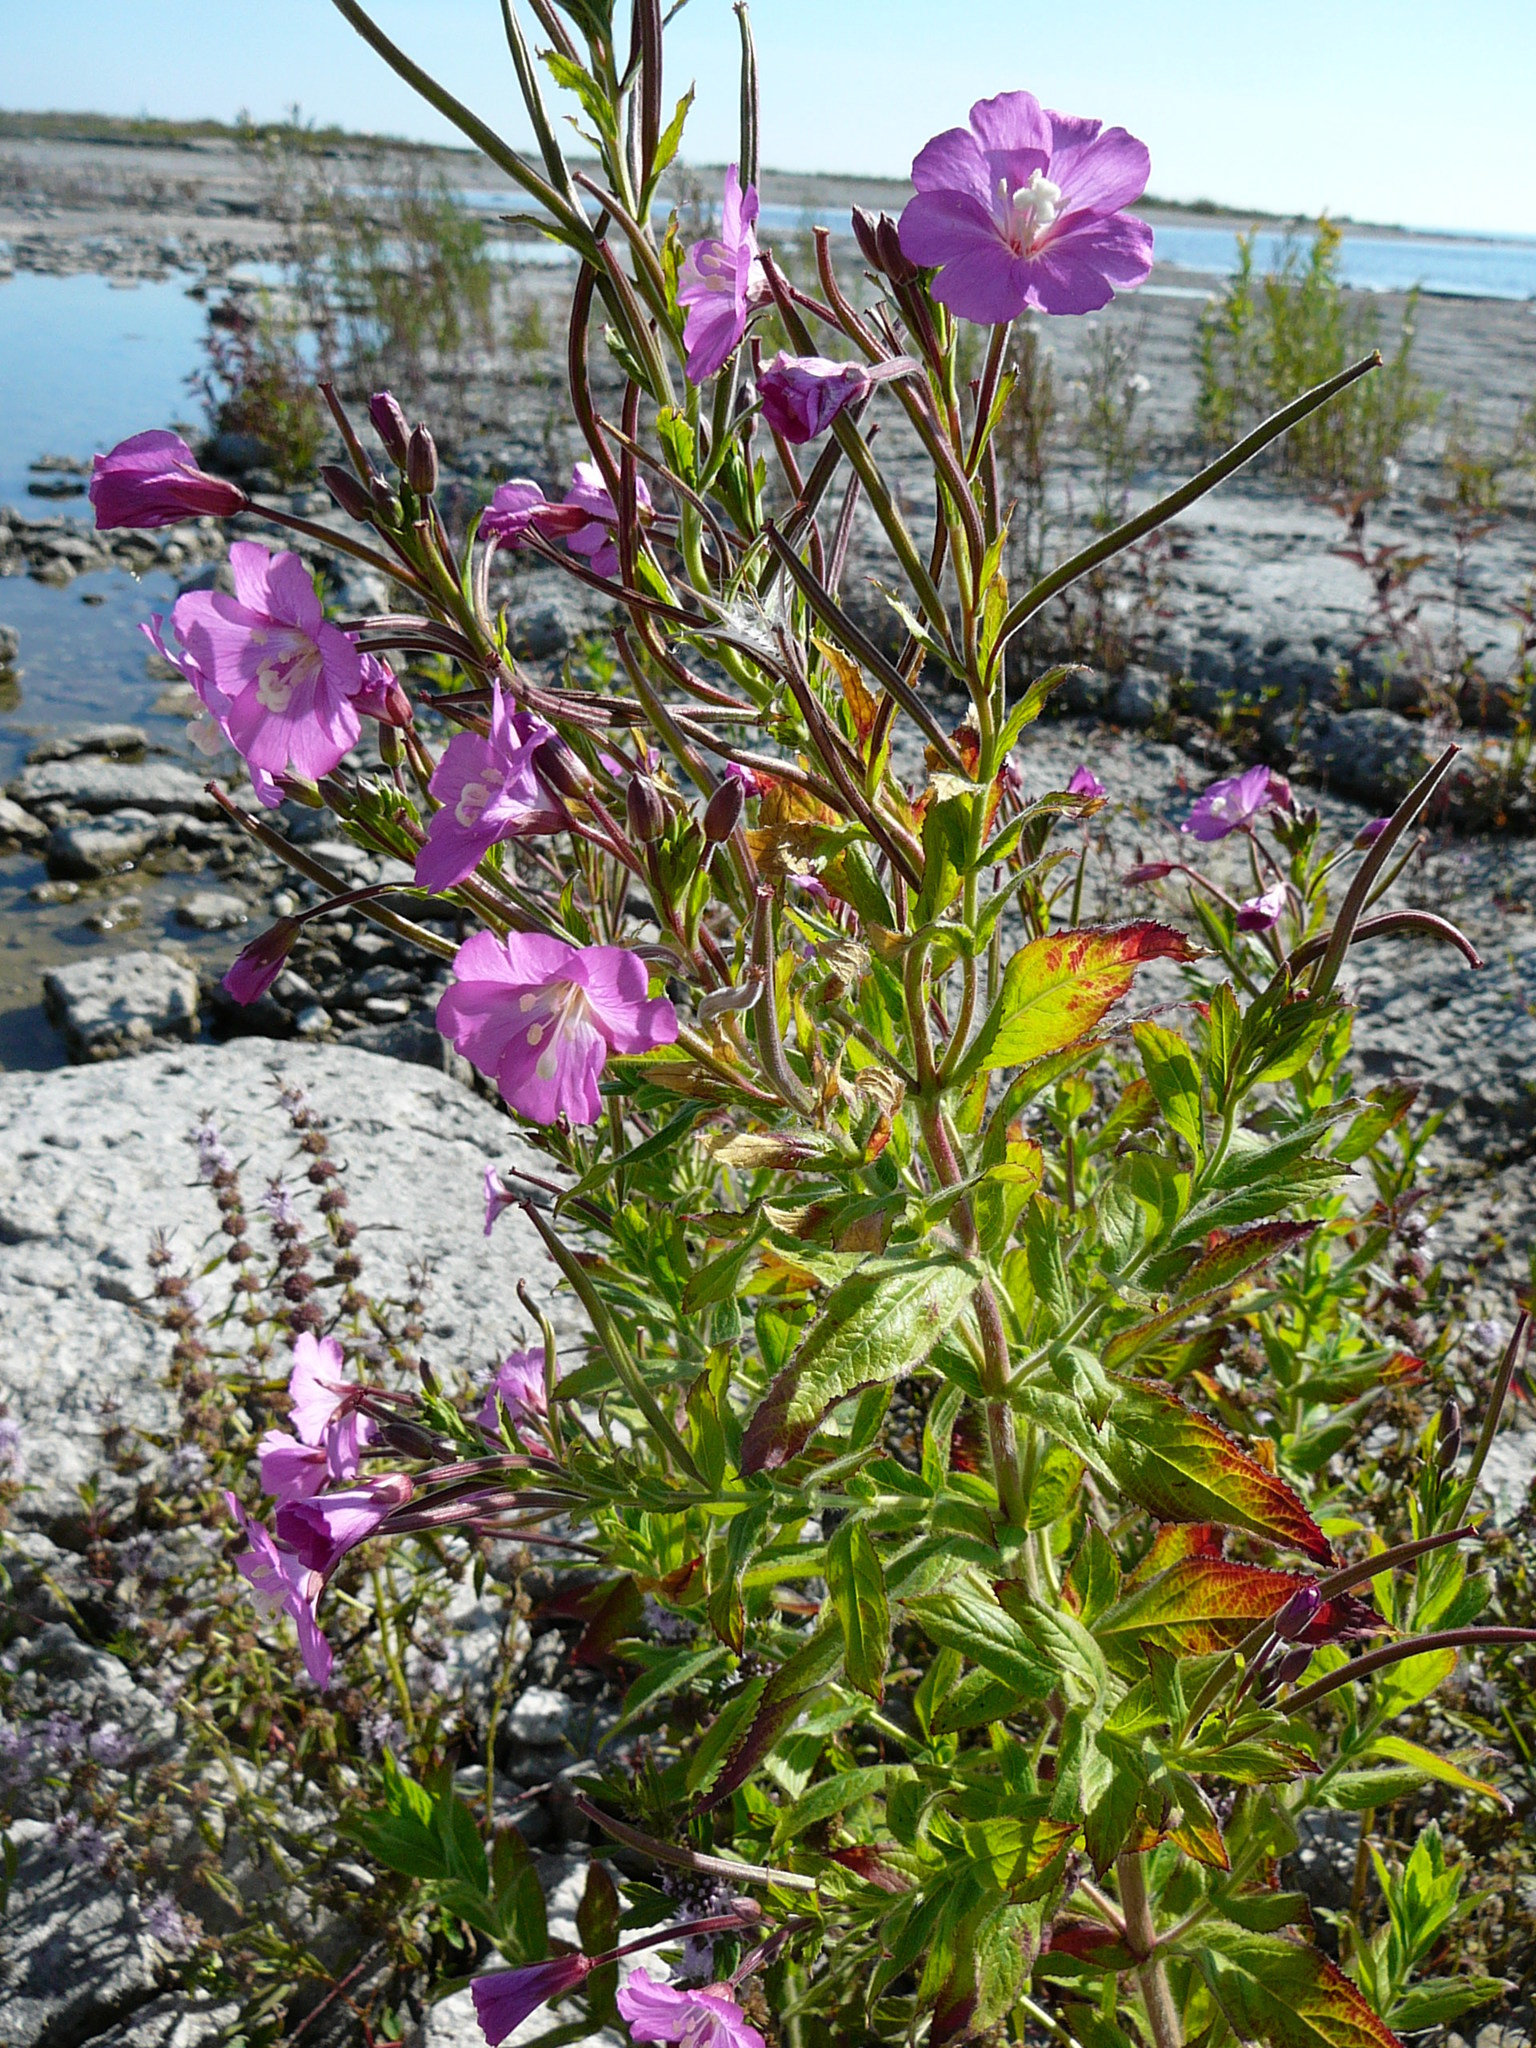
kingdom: Plantae
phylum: Tracheophyta
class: Magnoliopsida
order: Myrtales
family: Onagraceae
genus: Epilobium
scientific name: Epilobium hirsutum
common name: Great willowherb
